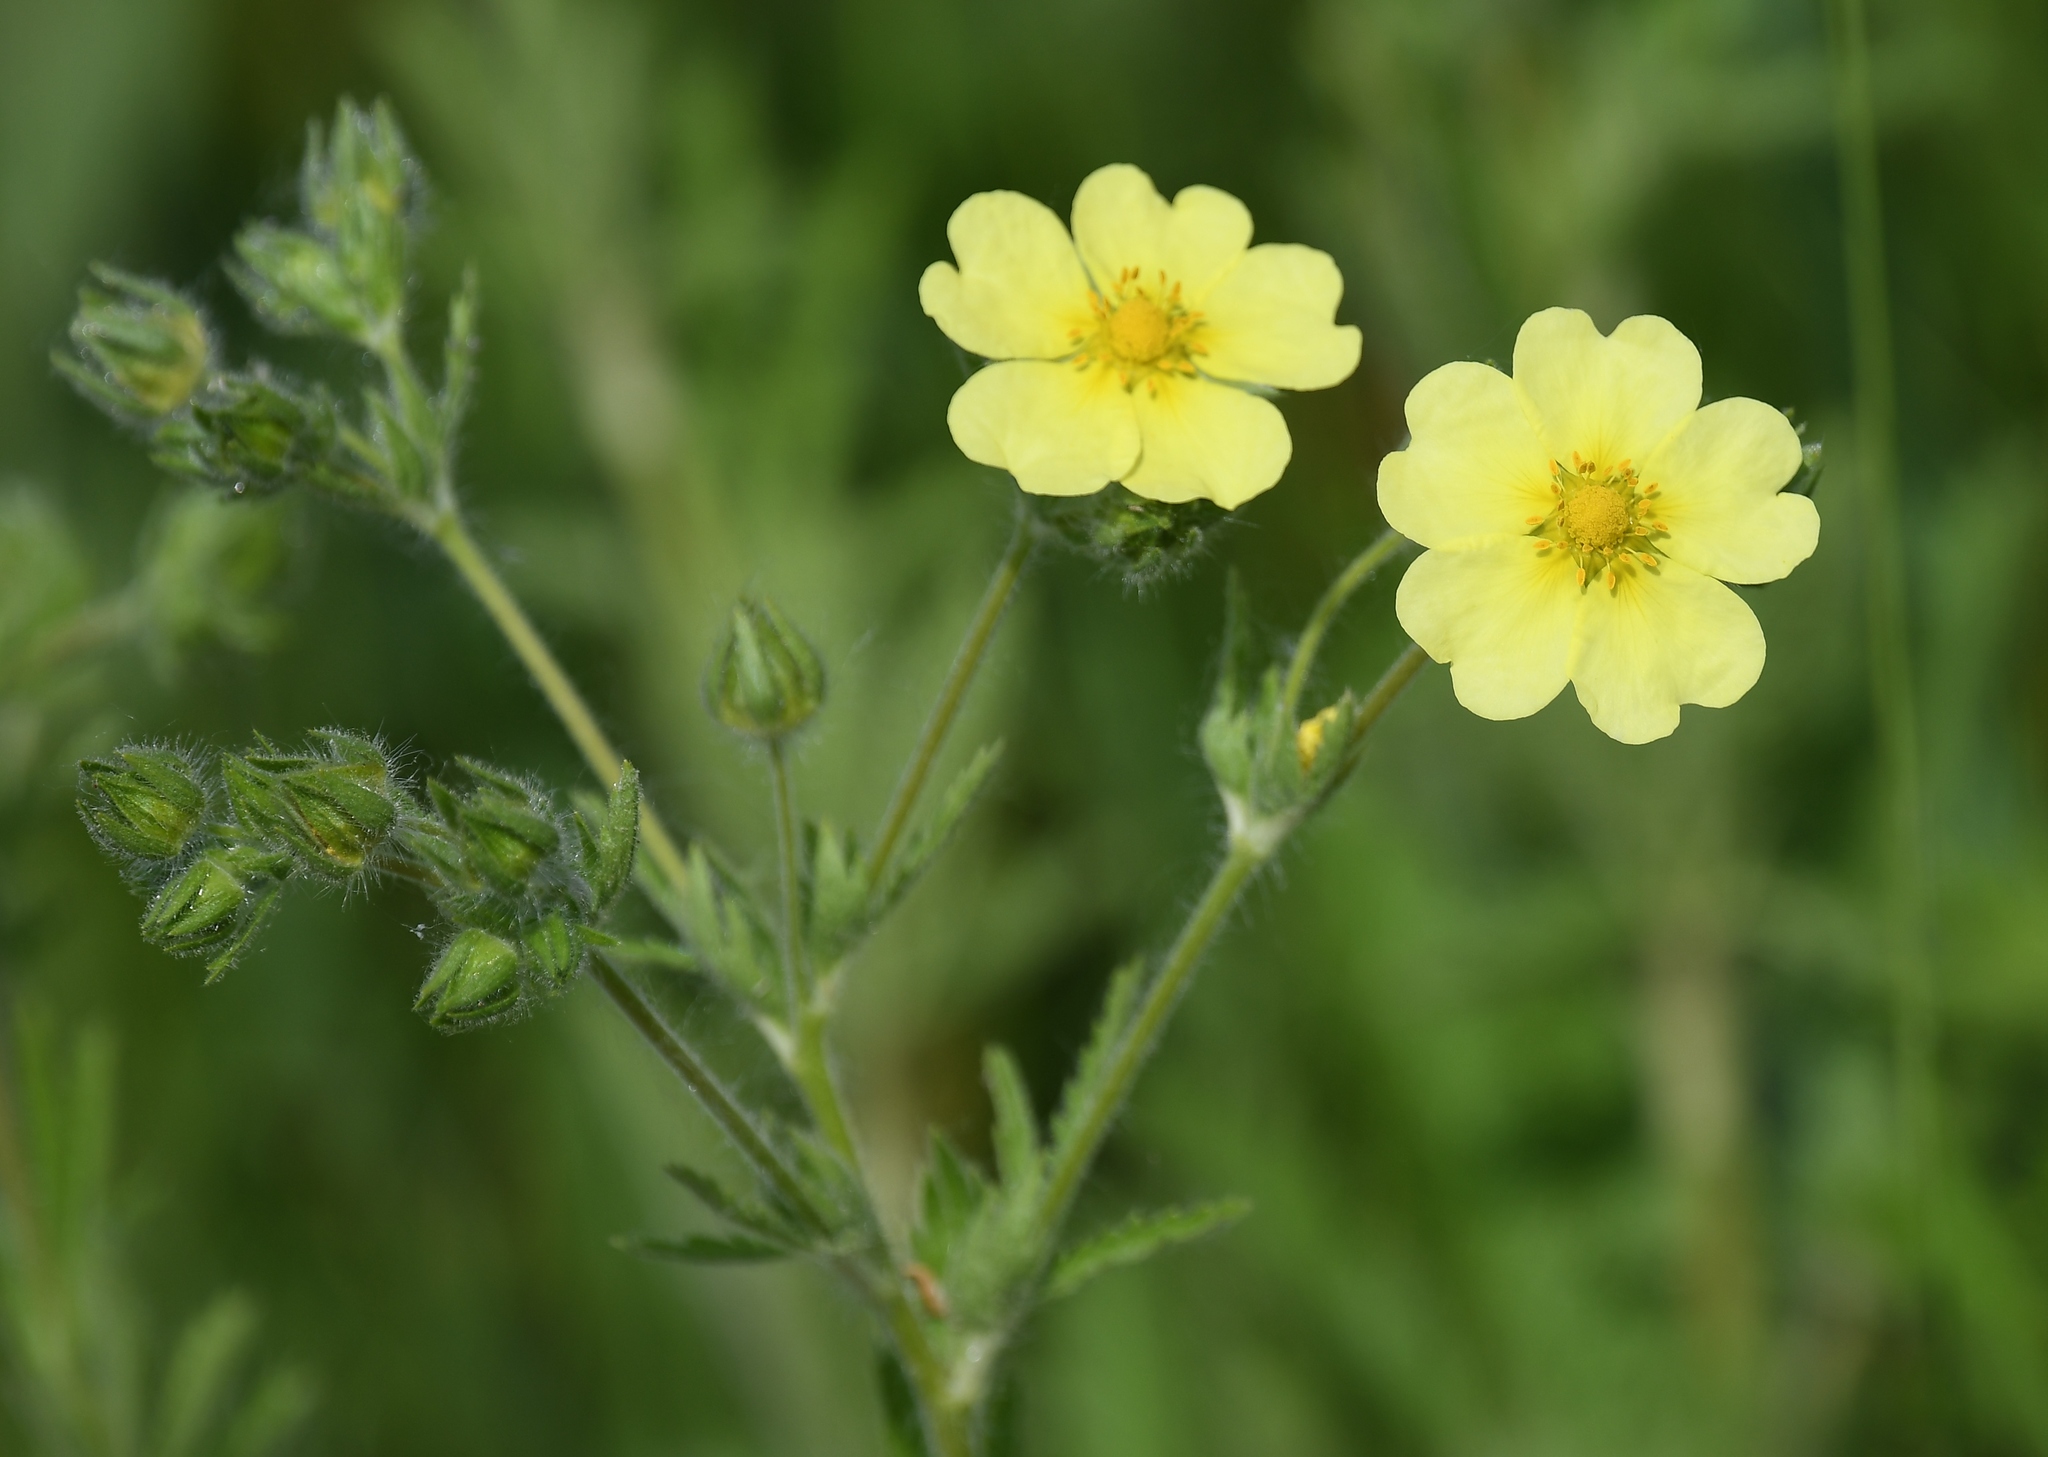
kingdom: Plantae
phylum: Tracheophyta
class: Magnoliopsida
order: Rosales
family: Rosaceae
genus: Potentilla
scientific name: Potentilla recta
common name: Sulphur cinquefoil
